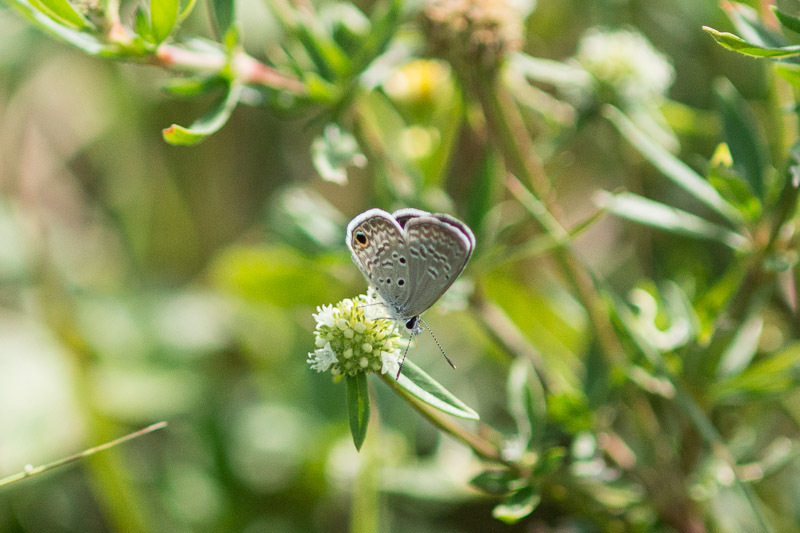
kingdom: Animalia
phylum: Arthropoda
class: Insecta
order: Lepidoptera
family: Lycaenidae
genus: Hemiargus
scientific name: Hemiargus ceraunus
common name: Ceraunus blue
